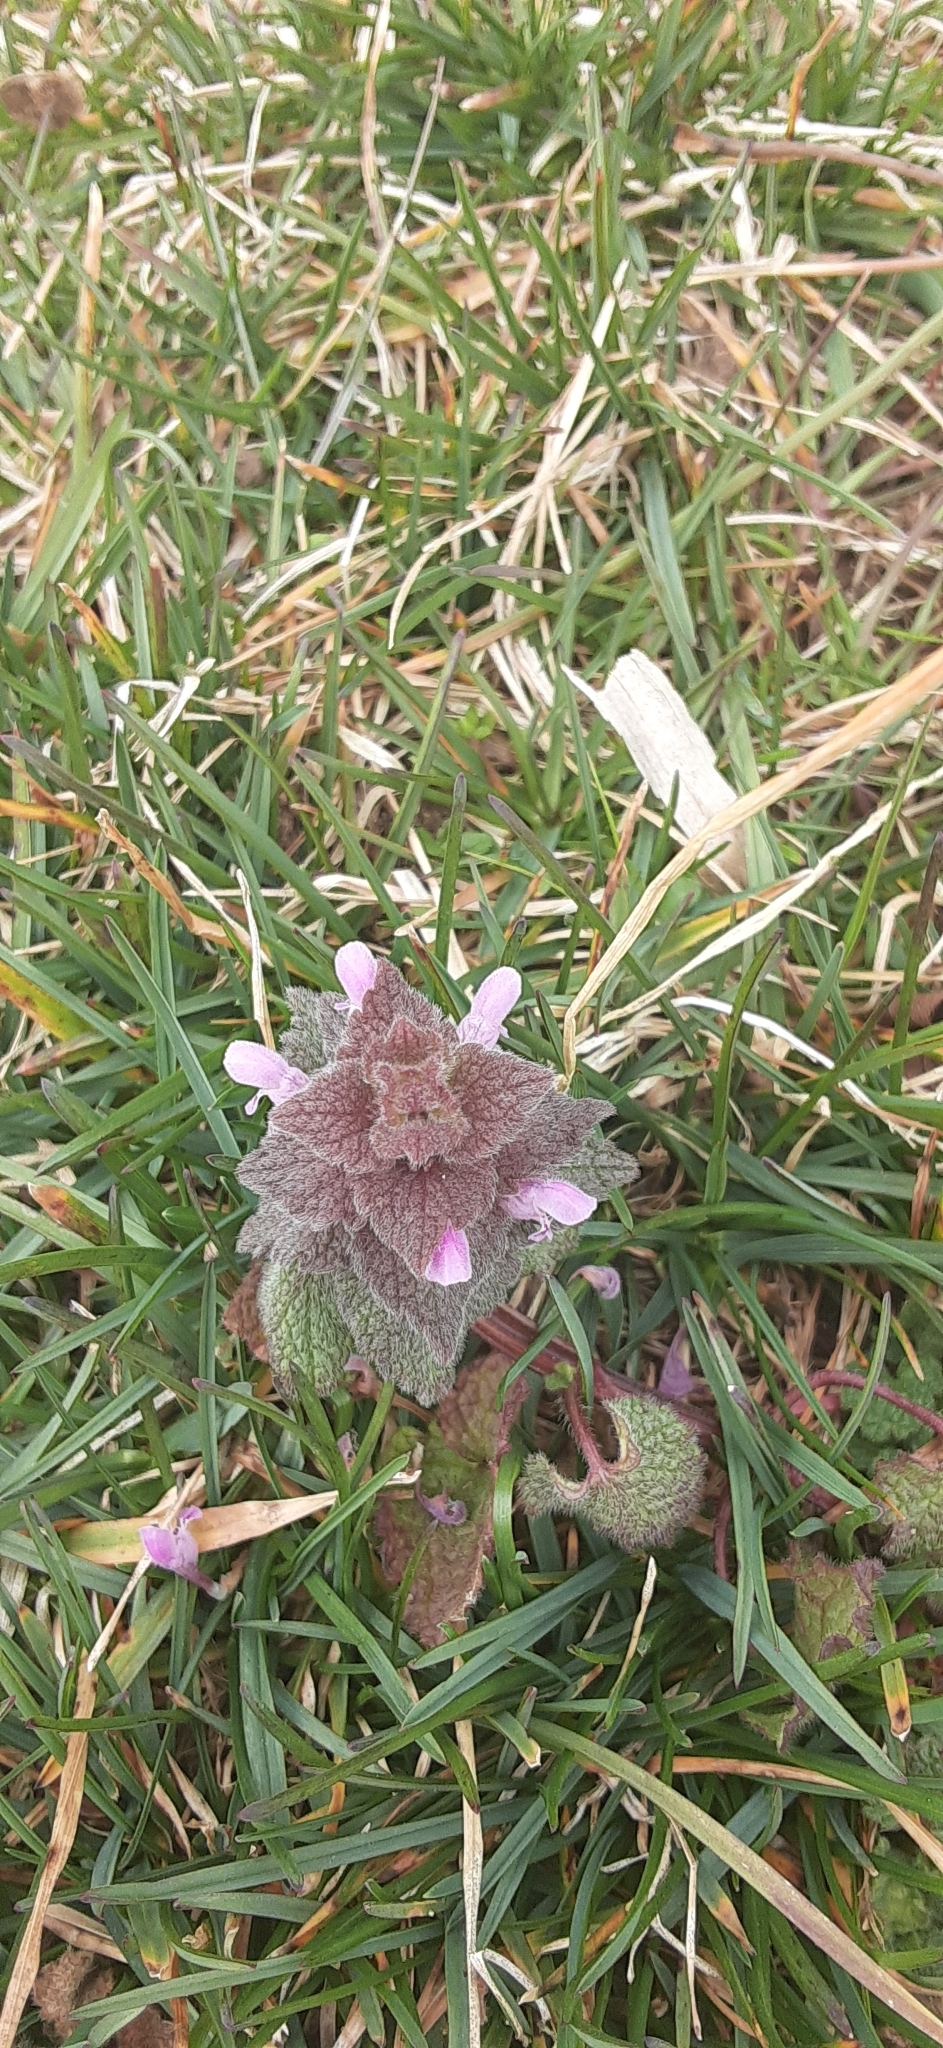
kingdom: Plantae
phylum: Tracheophyta
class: Magnoliopsida
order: Lamiales
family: Lamiaceae
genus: Lamium
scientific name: Lamium purpureum
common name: Red dead-nettle
